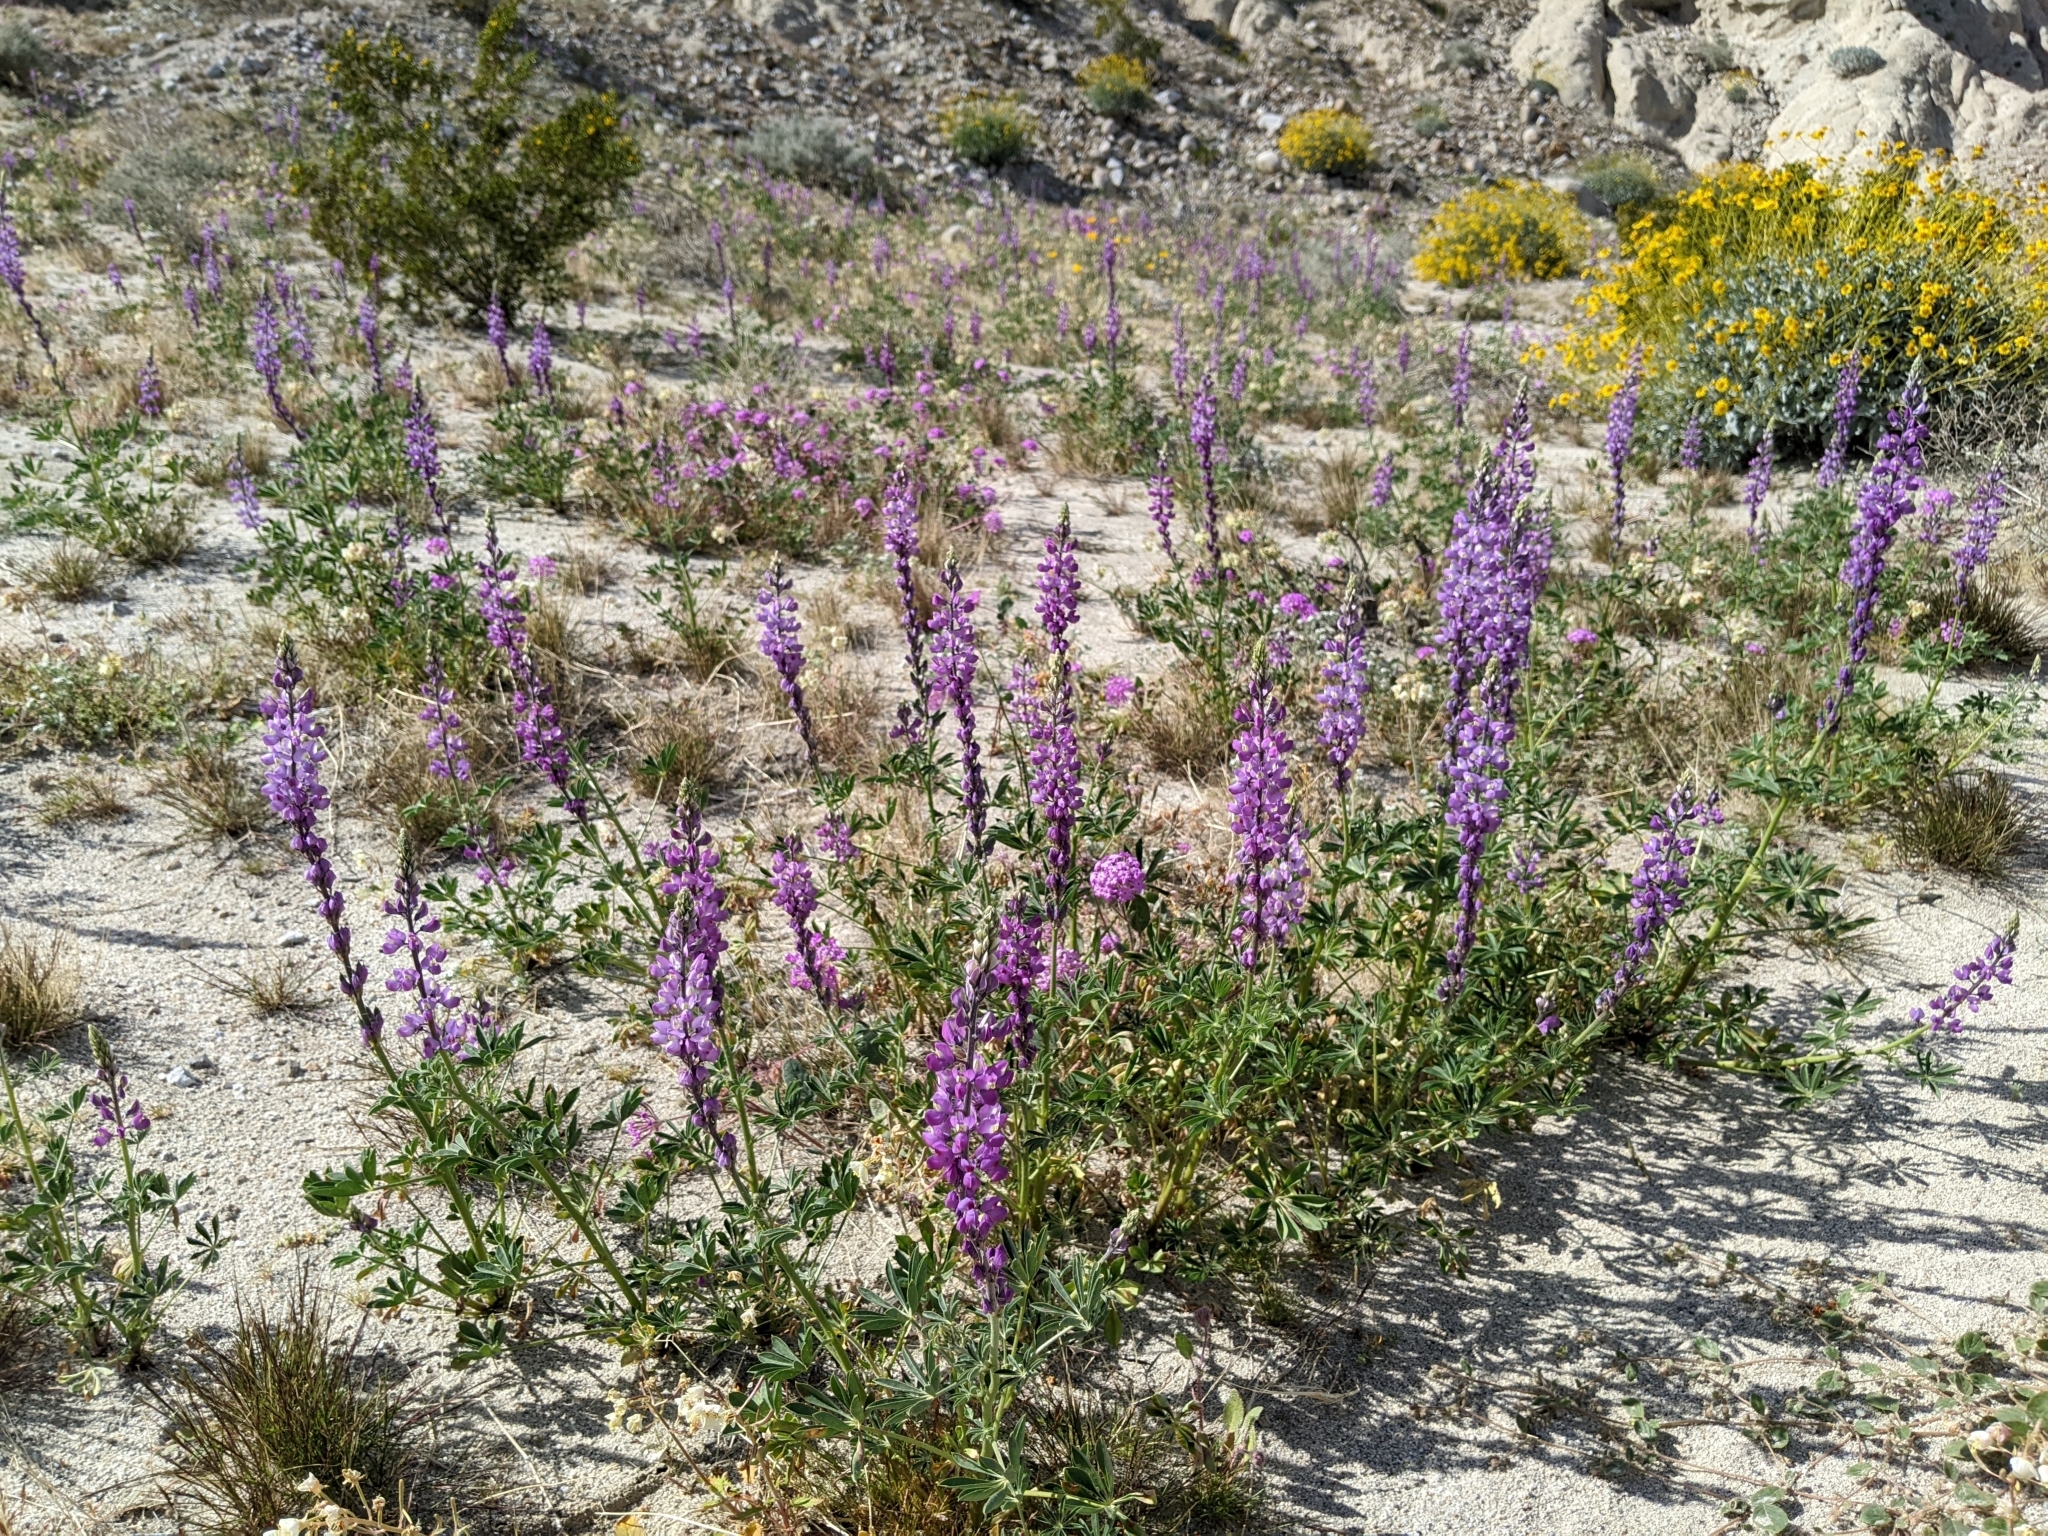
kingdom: Plantae
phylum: Tracheophyta
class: Magnoliopsida
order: Fabales
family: Fabaceae
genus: Lupinus
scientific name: Lupinus arizonicus
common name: Arizona lupine
